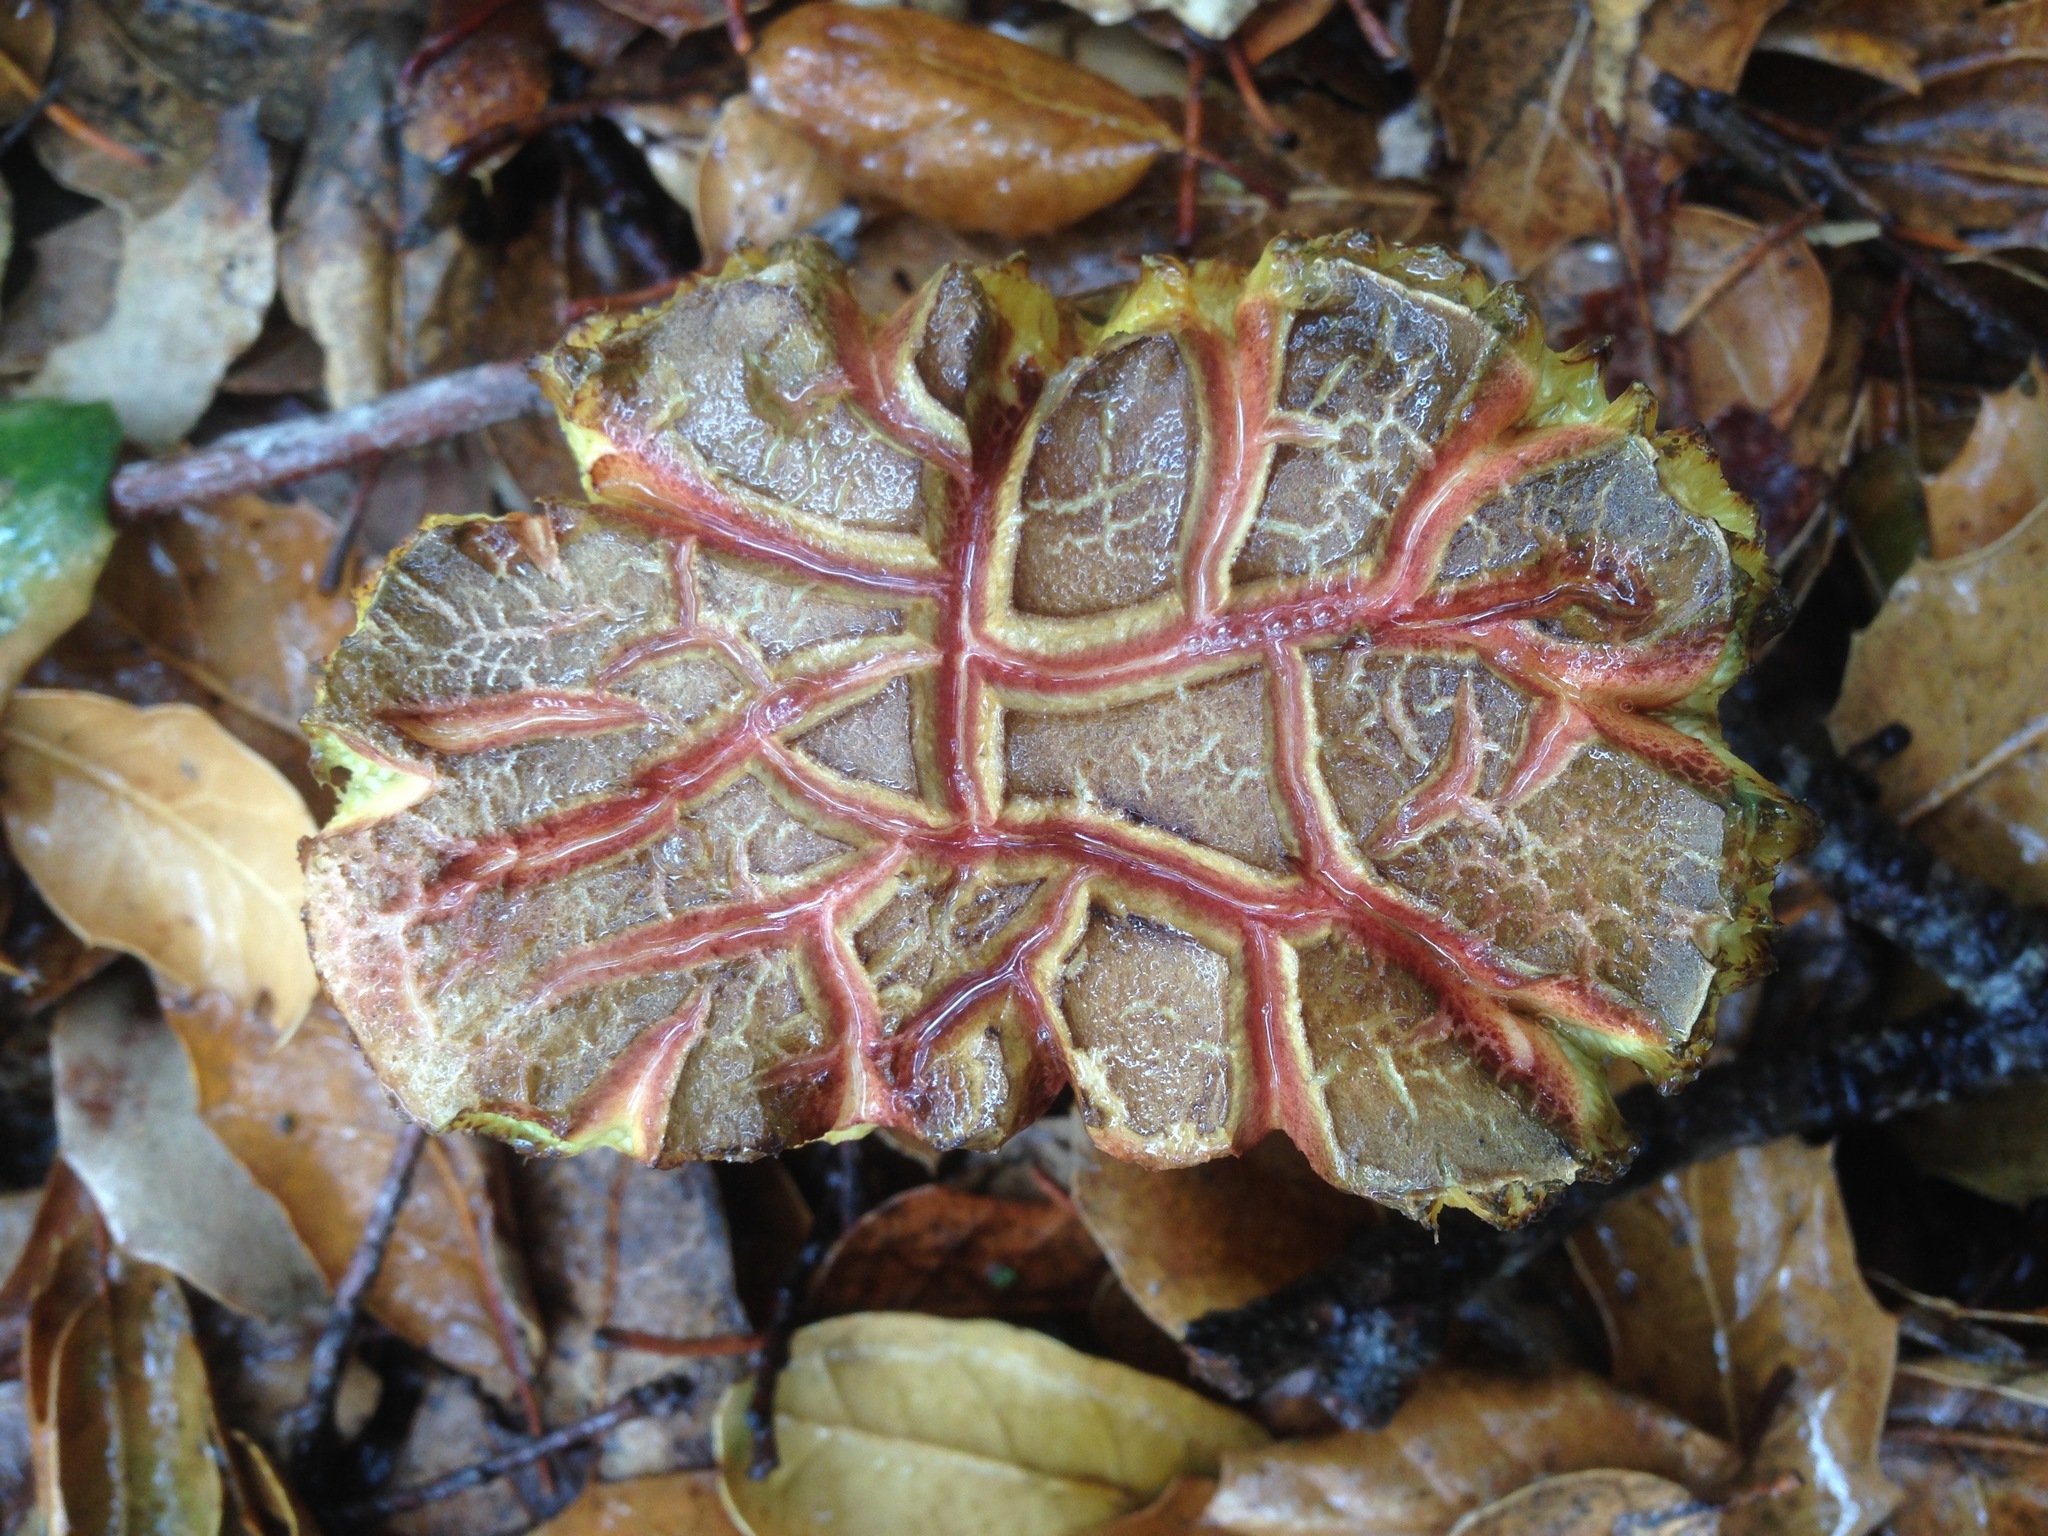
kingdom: Fungi
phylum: Basidiomycota
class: Agaricomycetes
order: Boletales
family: Boletaceae
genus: Xerocomellus
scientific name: Xerocomellus dryophilus
